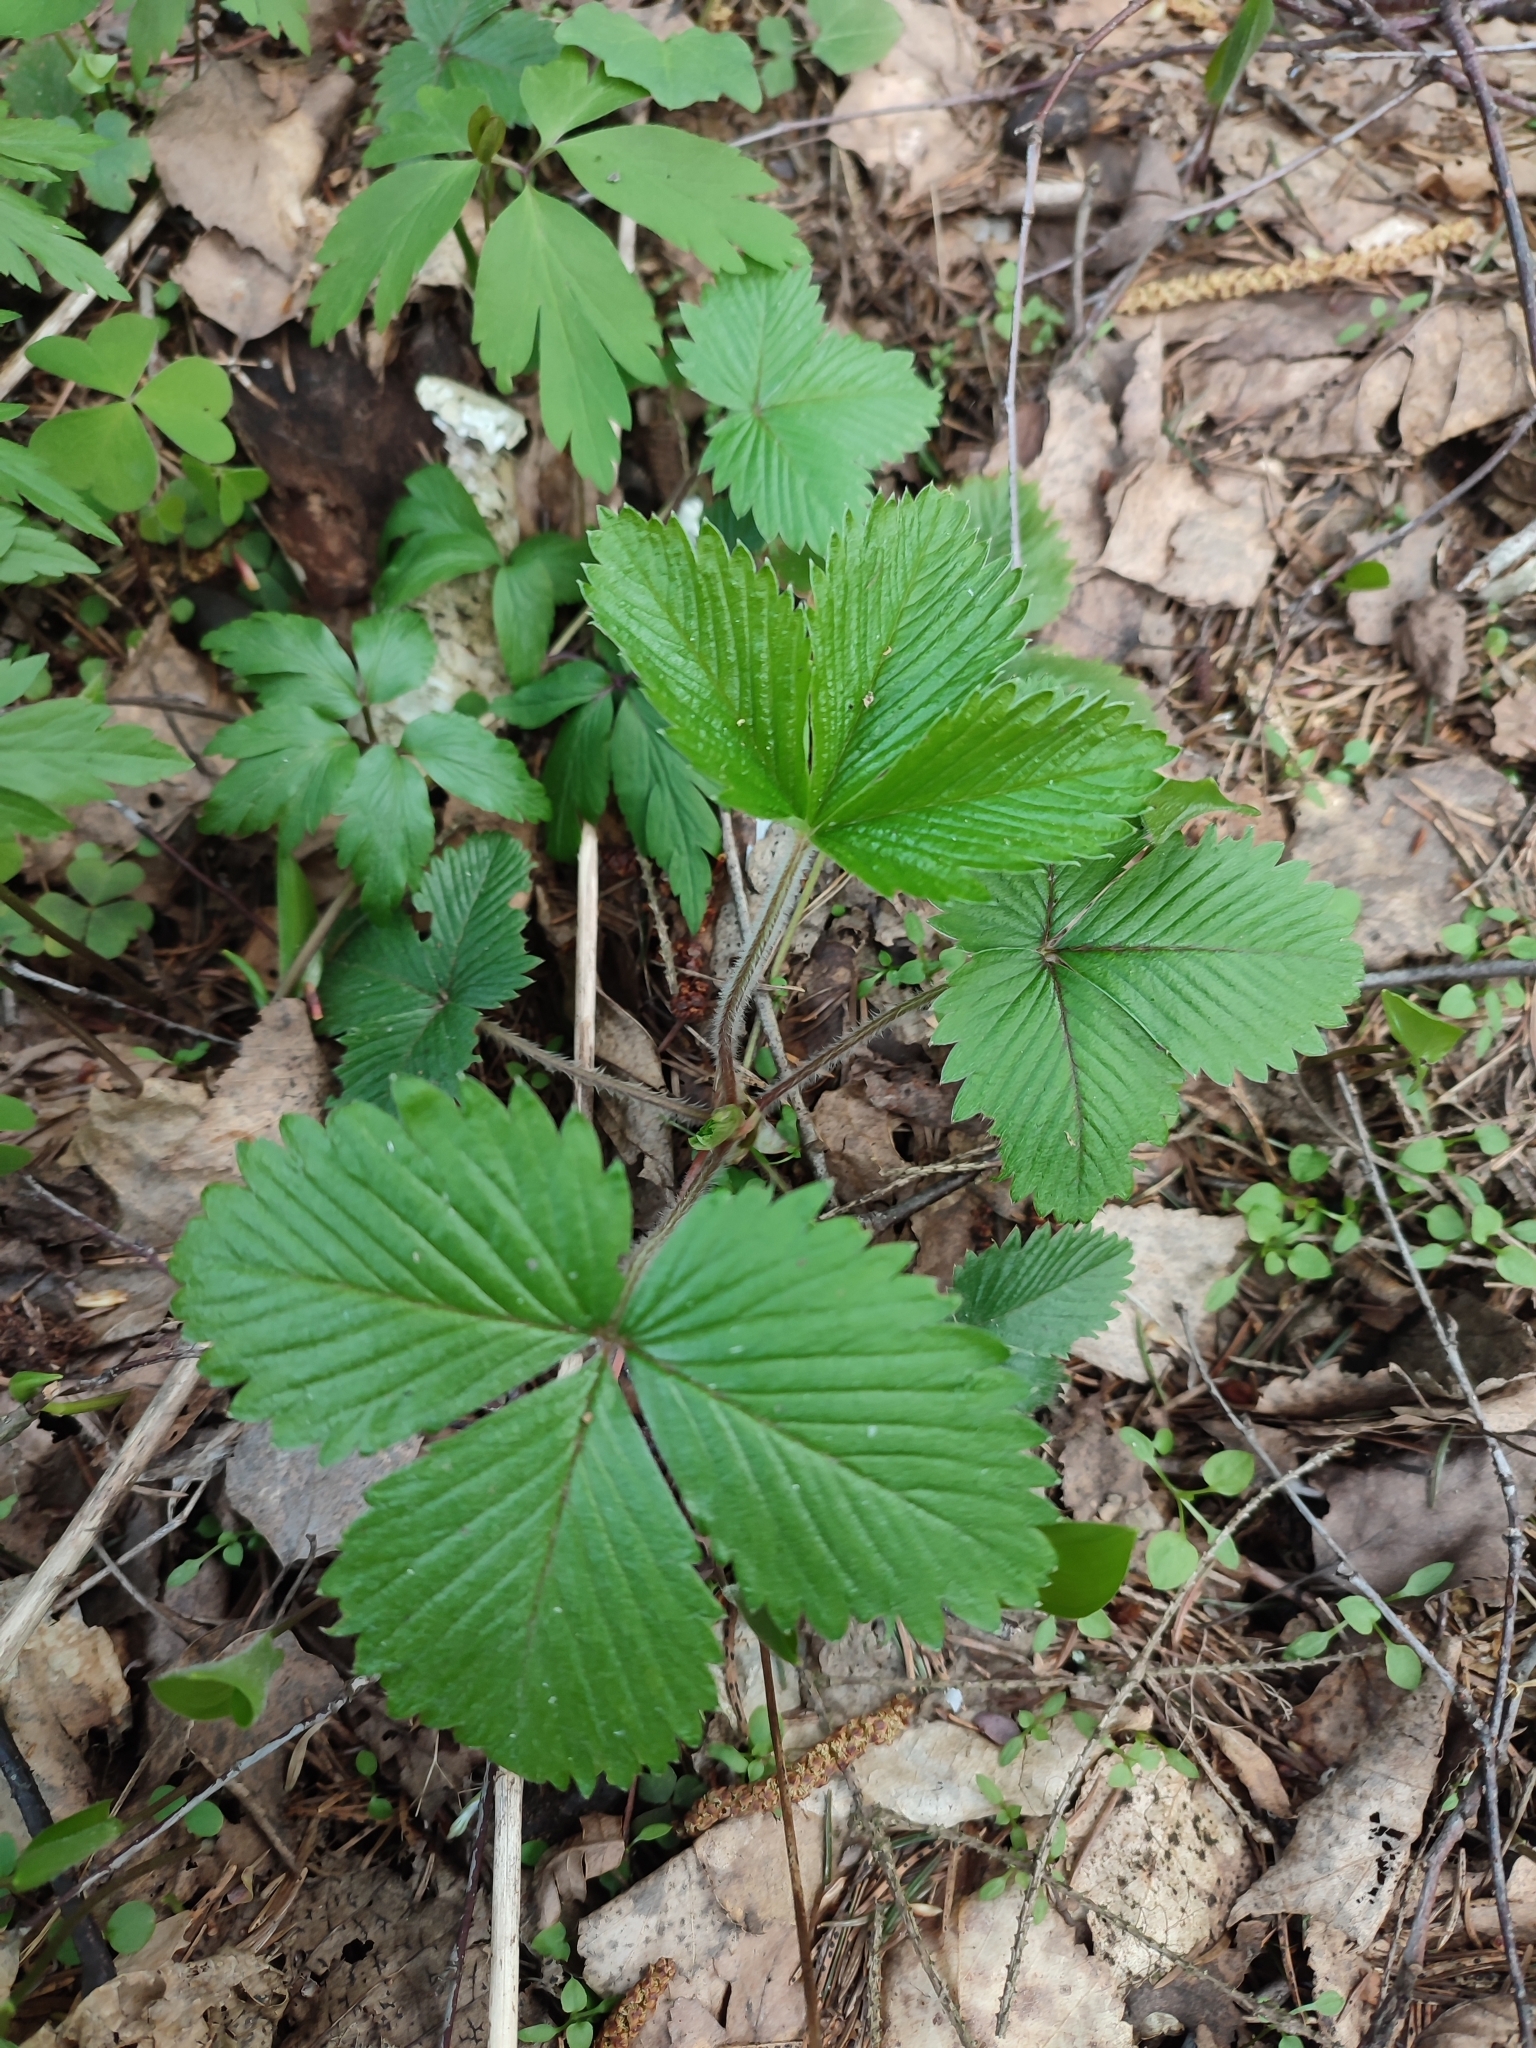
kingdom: Plantae
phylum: Tracheophyta
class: Magnoliopsida
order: Rosales
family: Rosaceae
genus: Fragaria
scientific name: Fragaria vesca
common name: Wild strawberry
